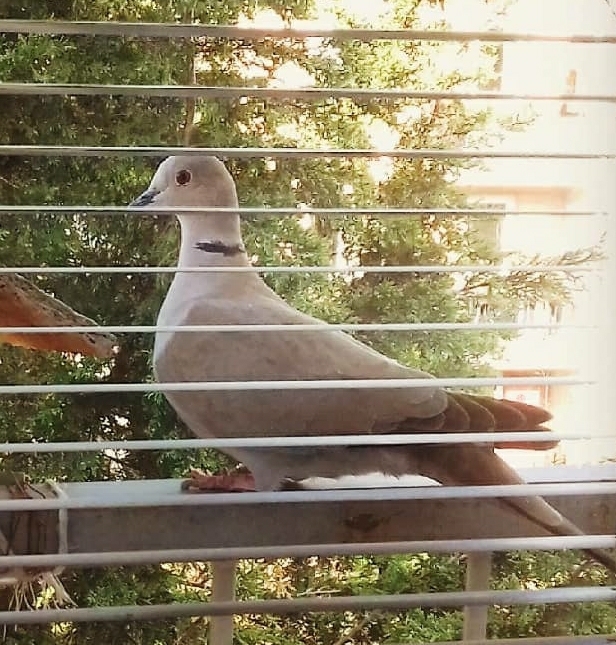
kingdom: Animalia
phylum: Chordata
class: Aves
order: Columbiformes
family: Columbidae
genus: Streptopelia
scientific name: Streptopelia decaocto
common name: Eurasian collared dove
